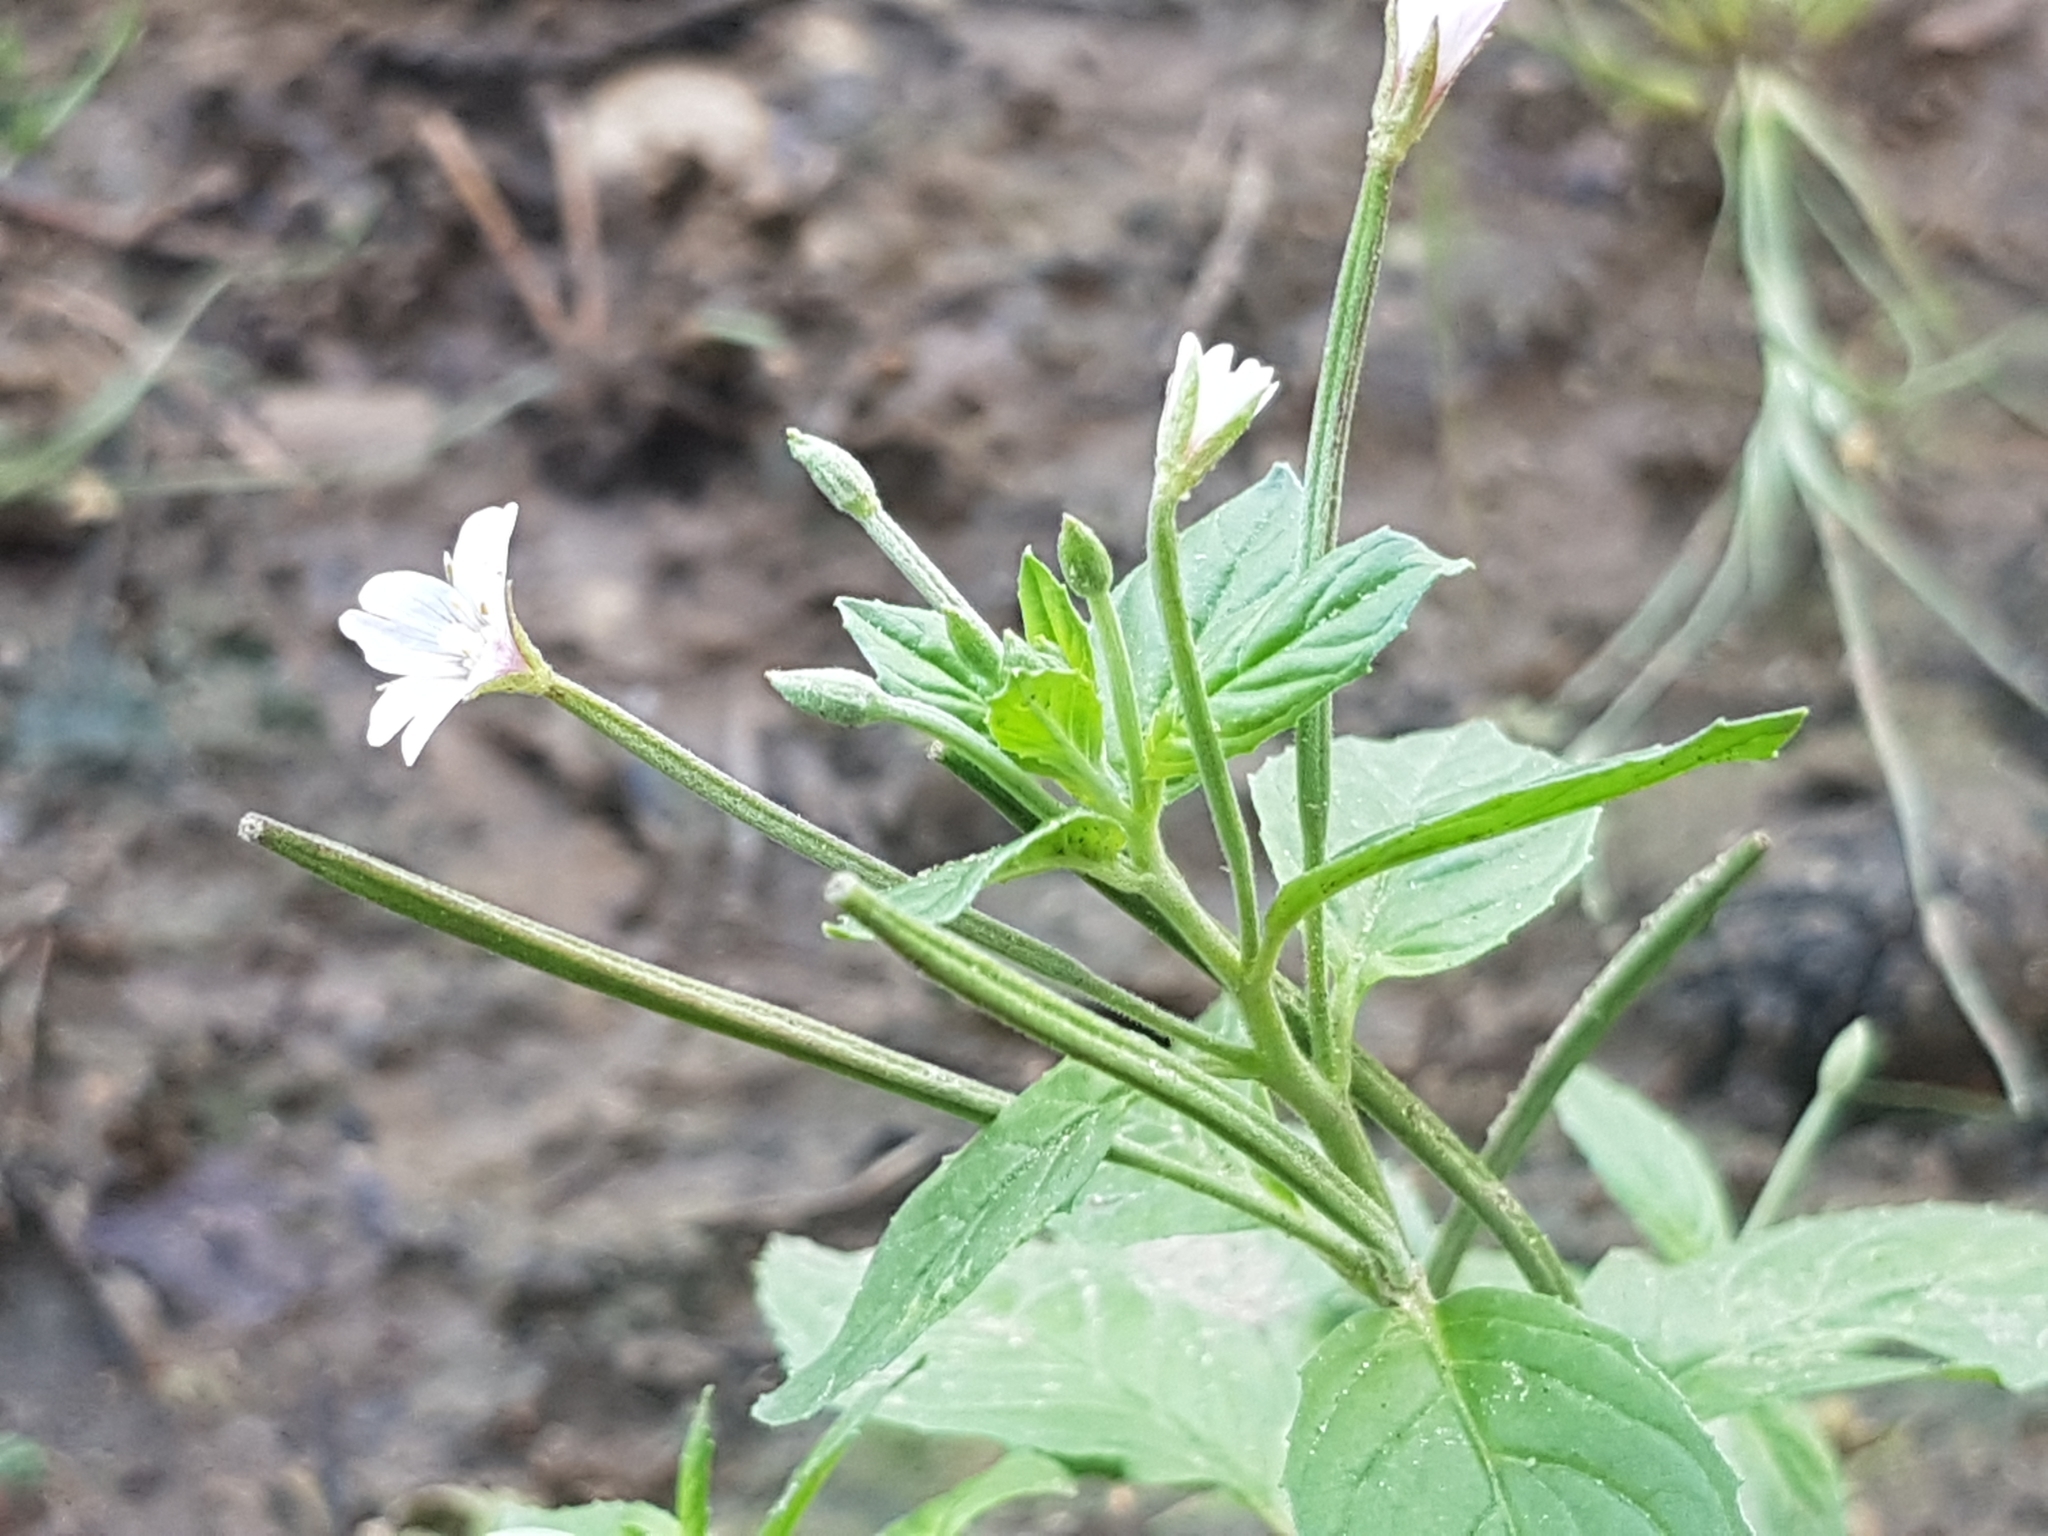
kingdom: Plantae
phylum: Tracheophyta
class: Magnoliopsida
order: Myrtales
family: Onagraceae
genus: Epilobium
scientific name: Epilobium roseum
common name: Pale willowherb
